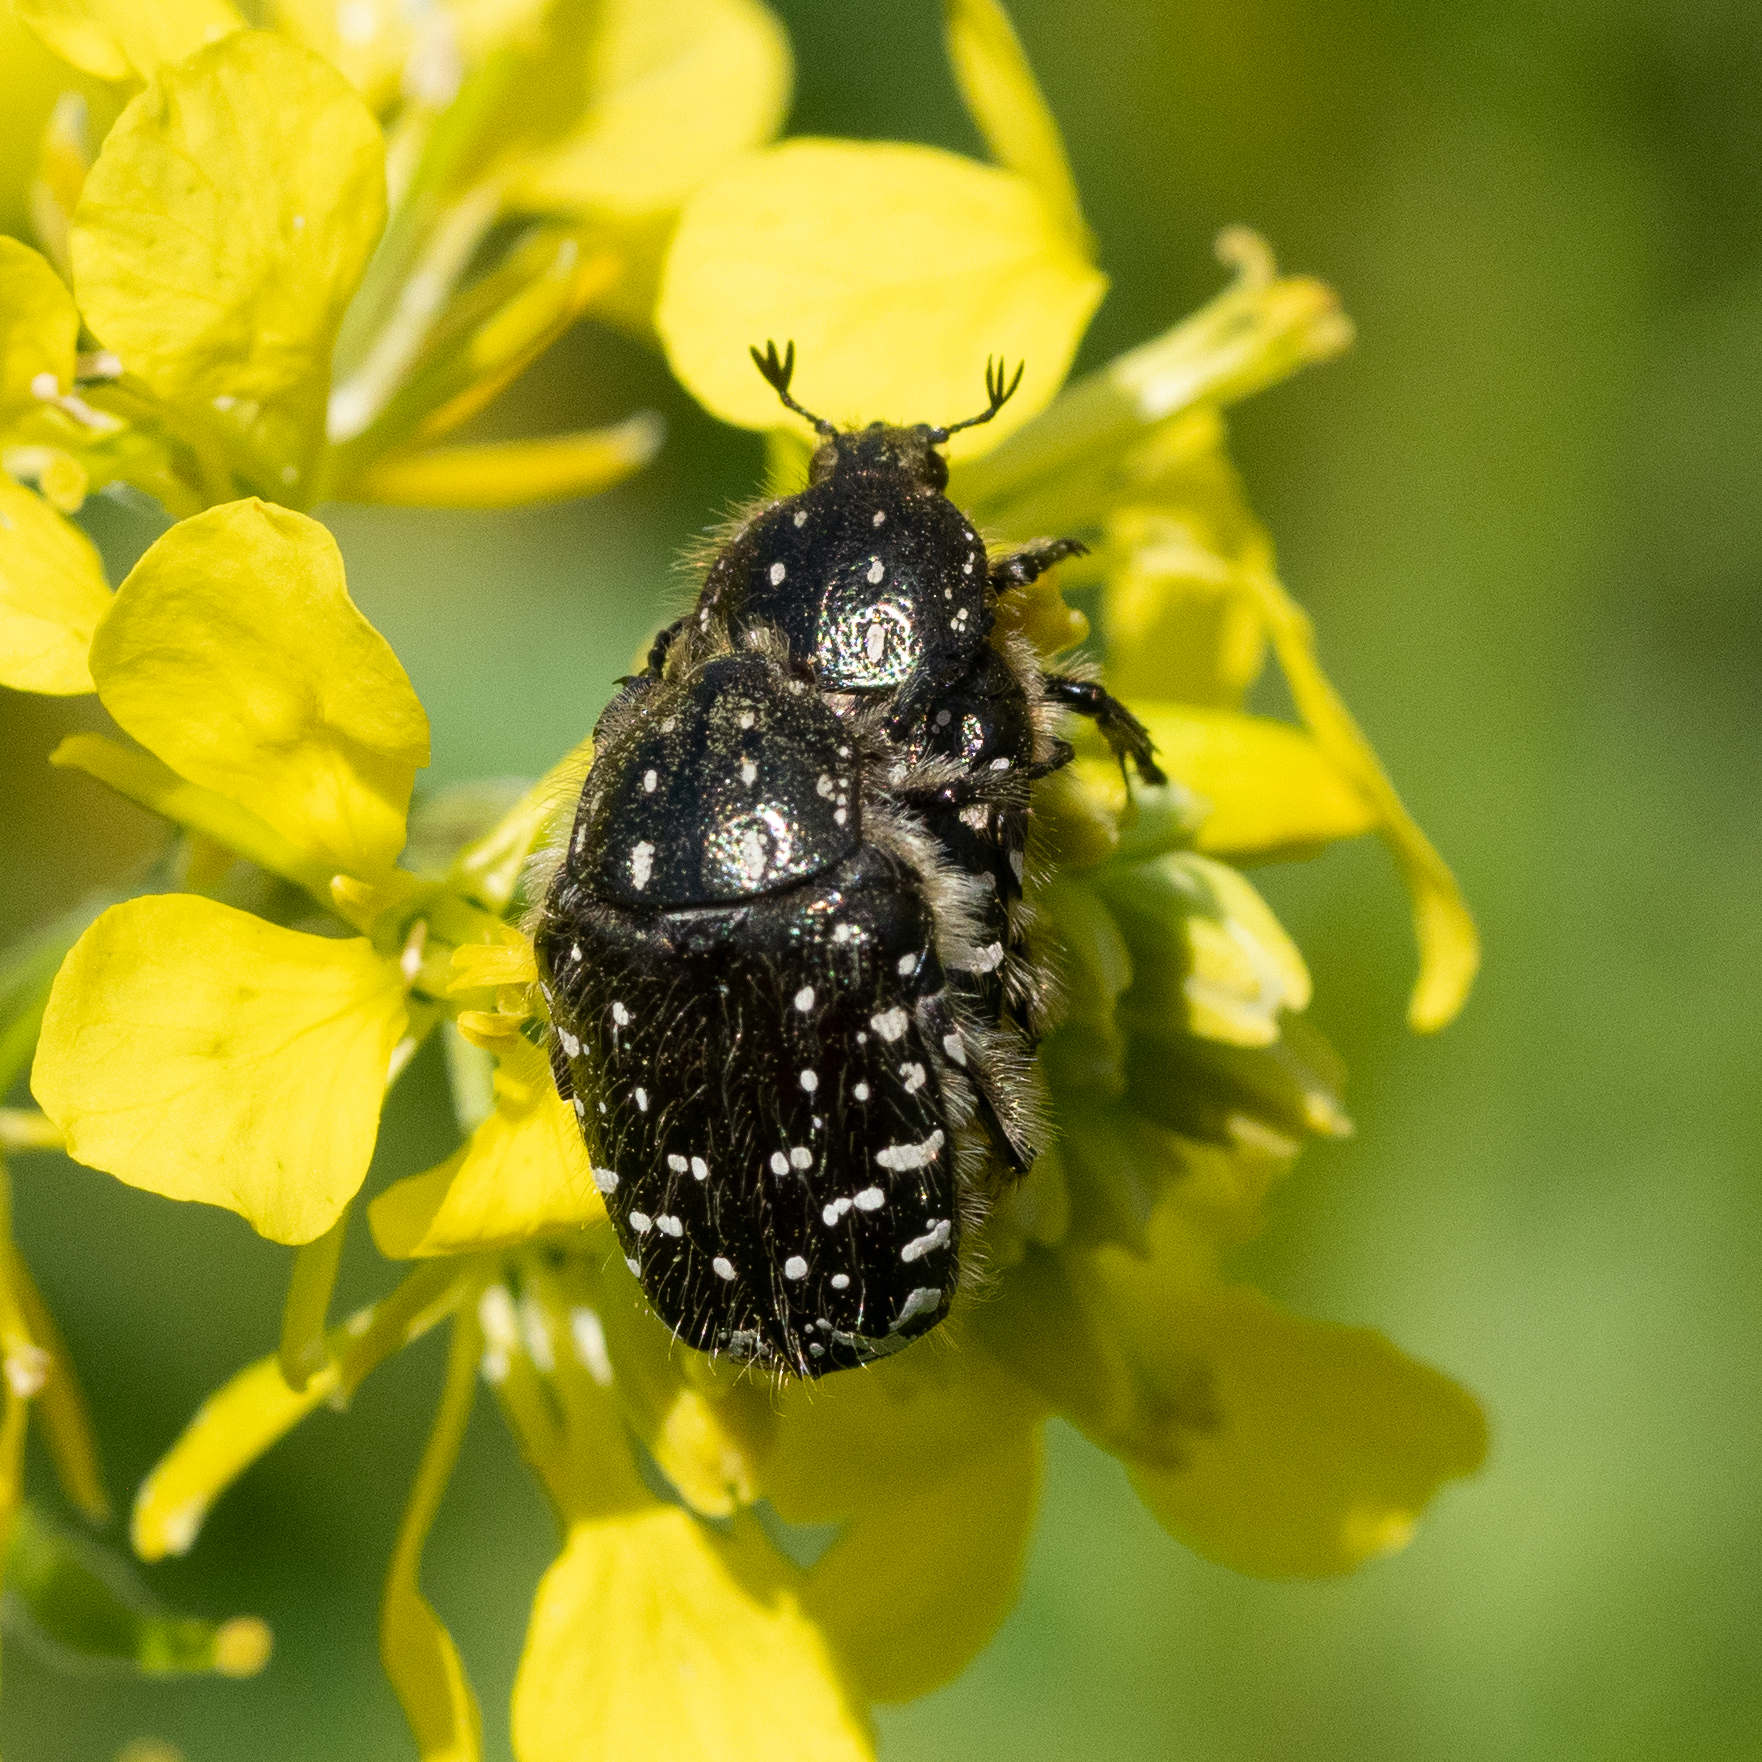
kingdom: Animalia
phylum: Arthropoda
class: Insecta
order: Coleoptera
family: Scarabaeidae
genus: Oxythyrea
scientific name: Oxythyrea funesta
